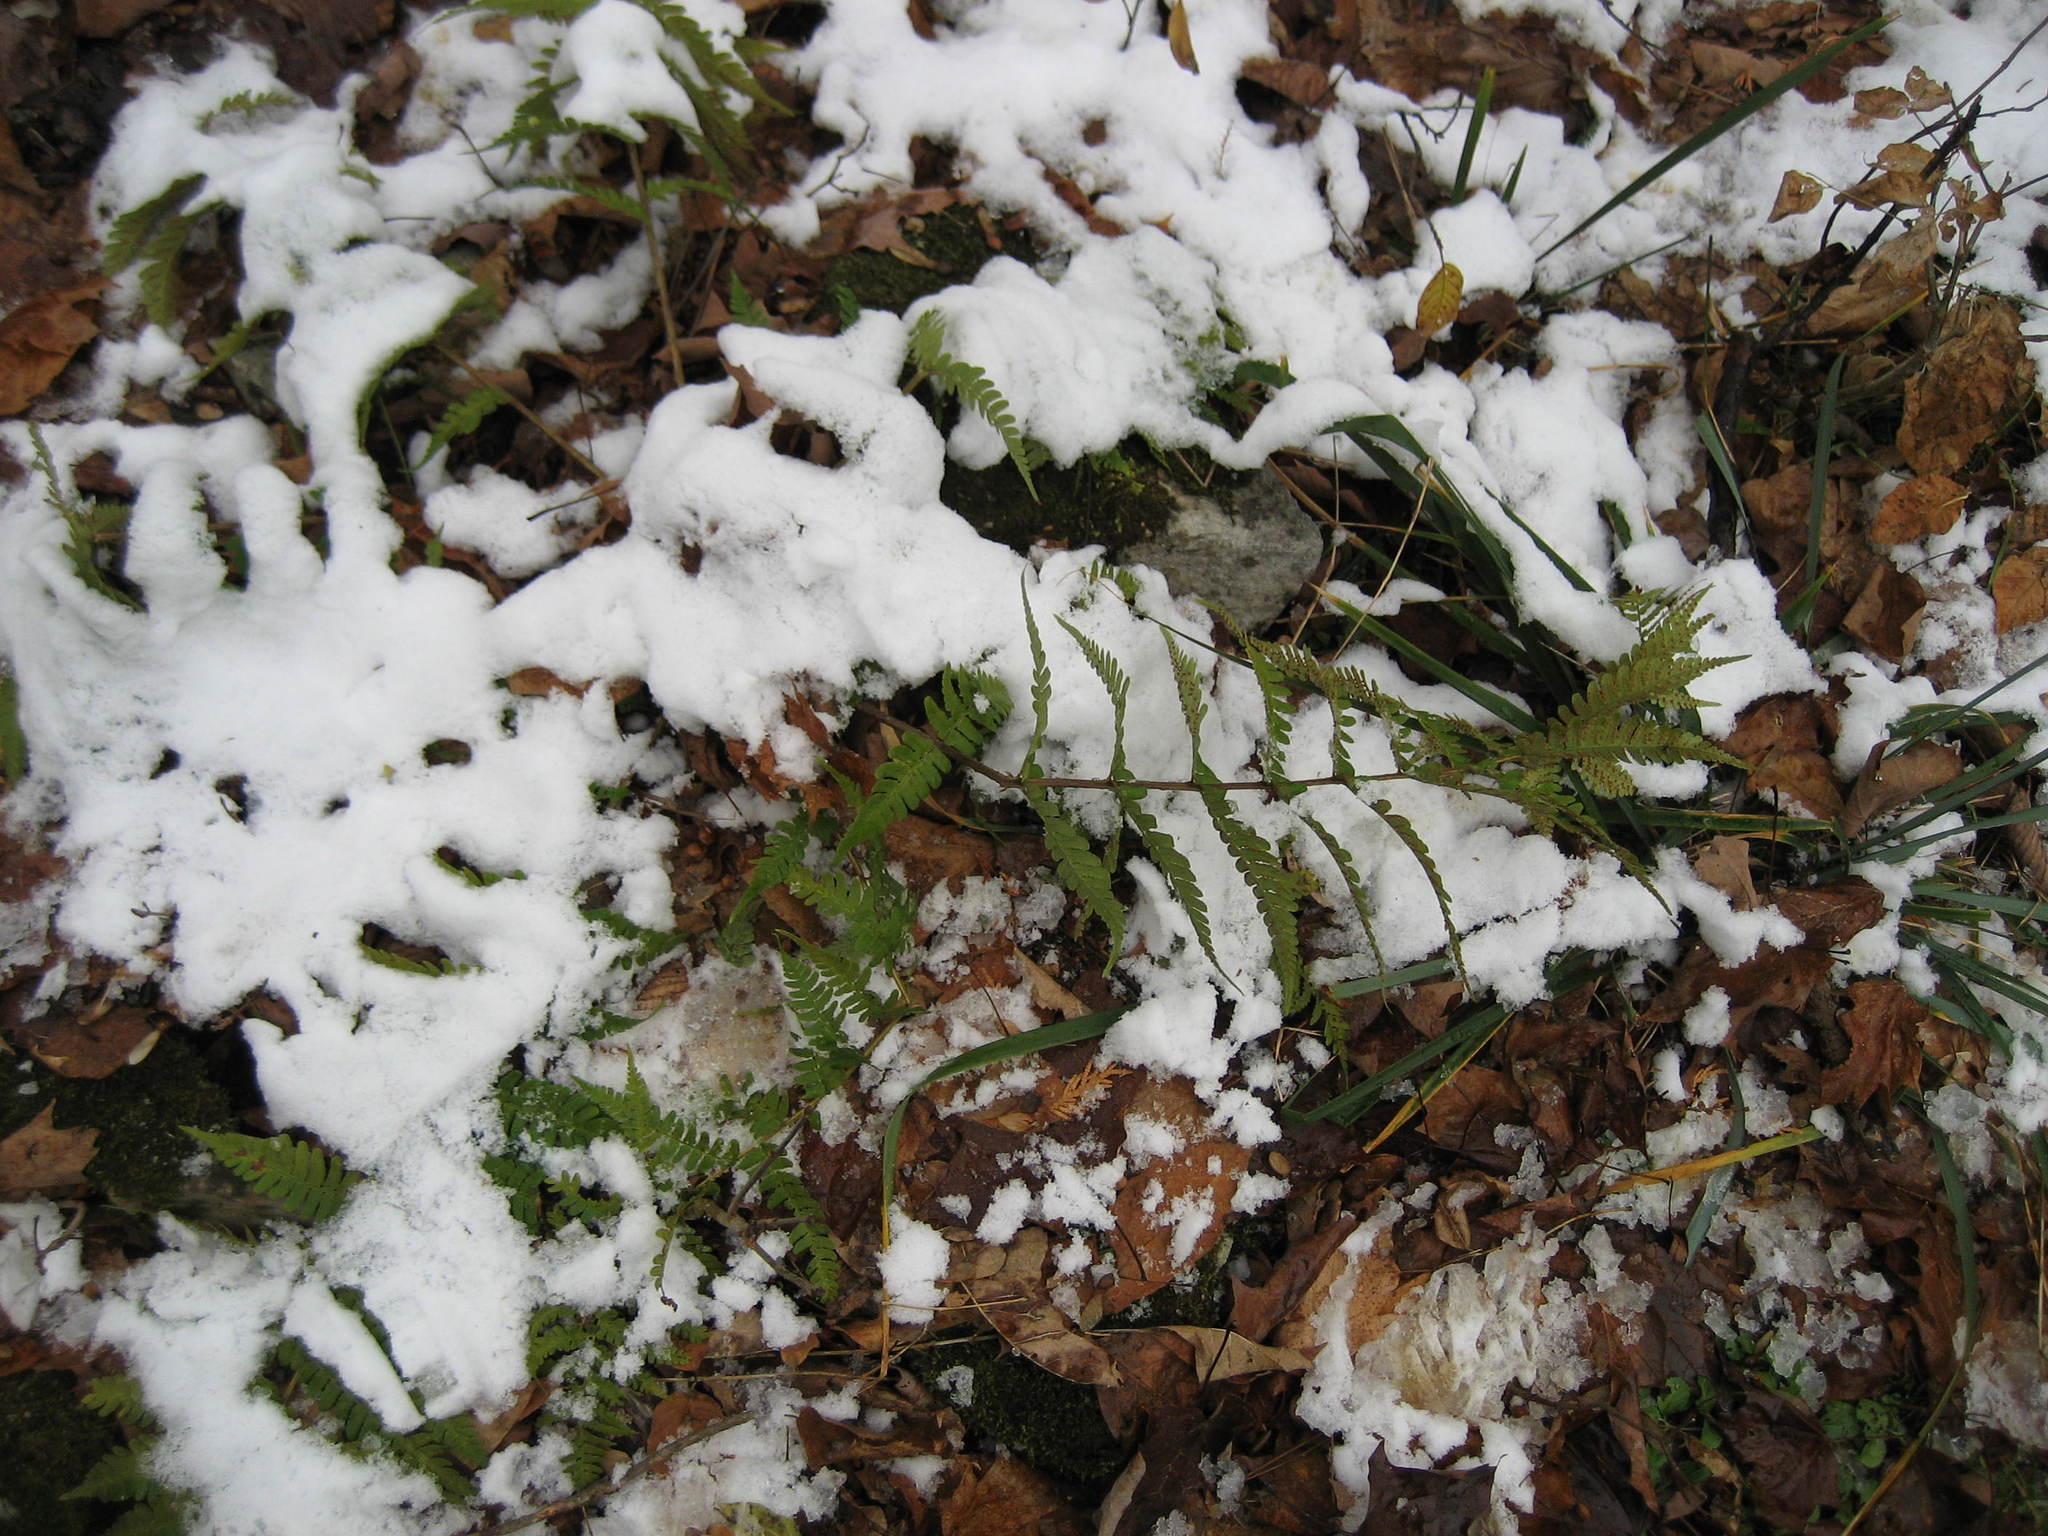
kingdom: Plantae
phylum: Tracheophyta
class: Polypodiopsida
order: Polypodiales
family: Dryopteridaceae
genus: Dryopteris
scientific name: Dryopteris marginalis
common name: Marginal wood fern
